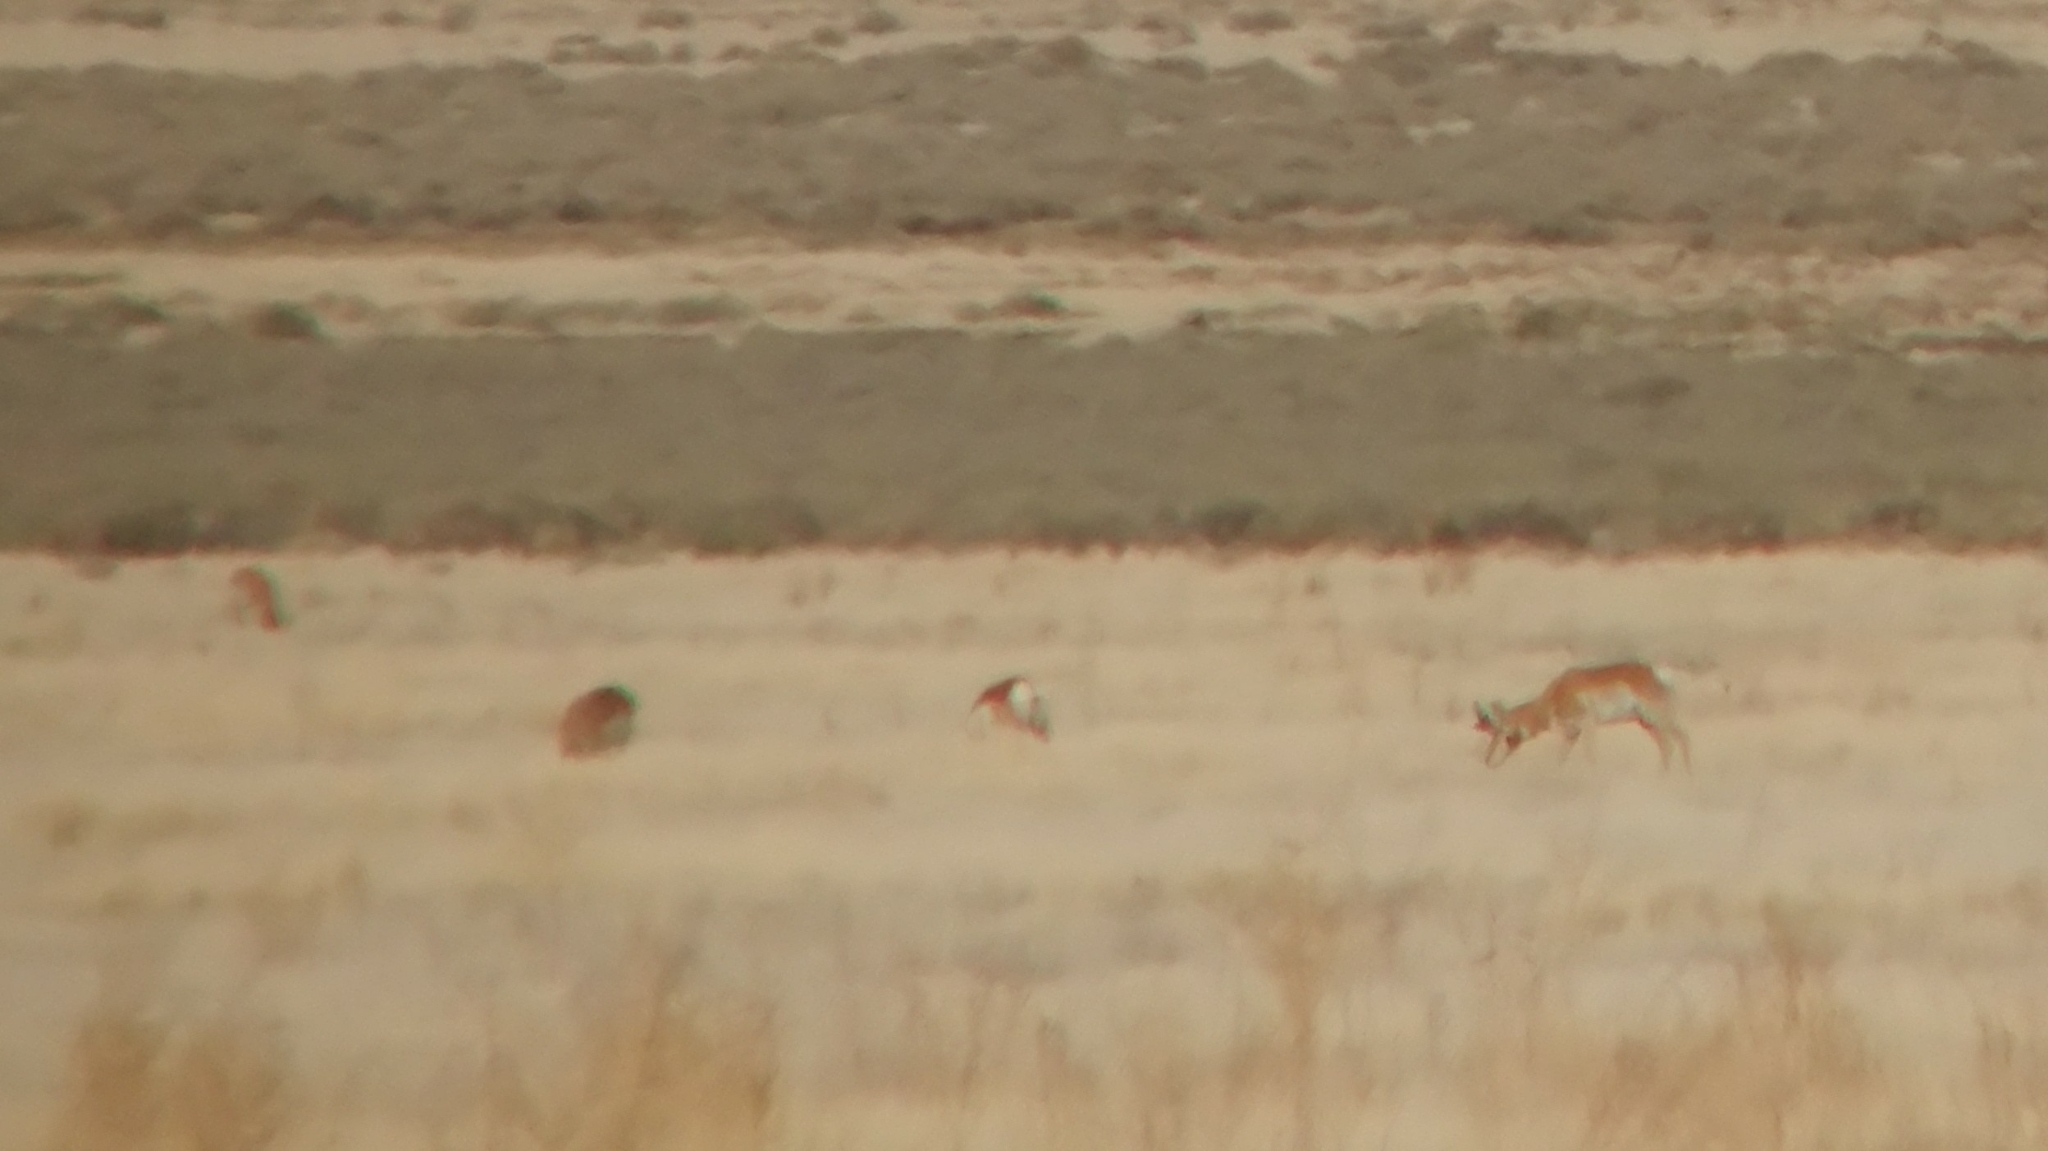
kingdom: Animalia
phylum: Chordata
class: Mammalia
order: Artiodactyla
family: Antilocapridae
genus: Antilocapra
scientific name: Antilocapra americana
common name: Pronghorn
